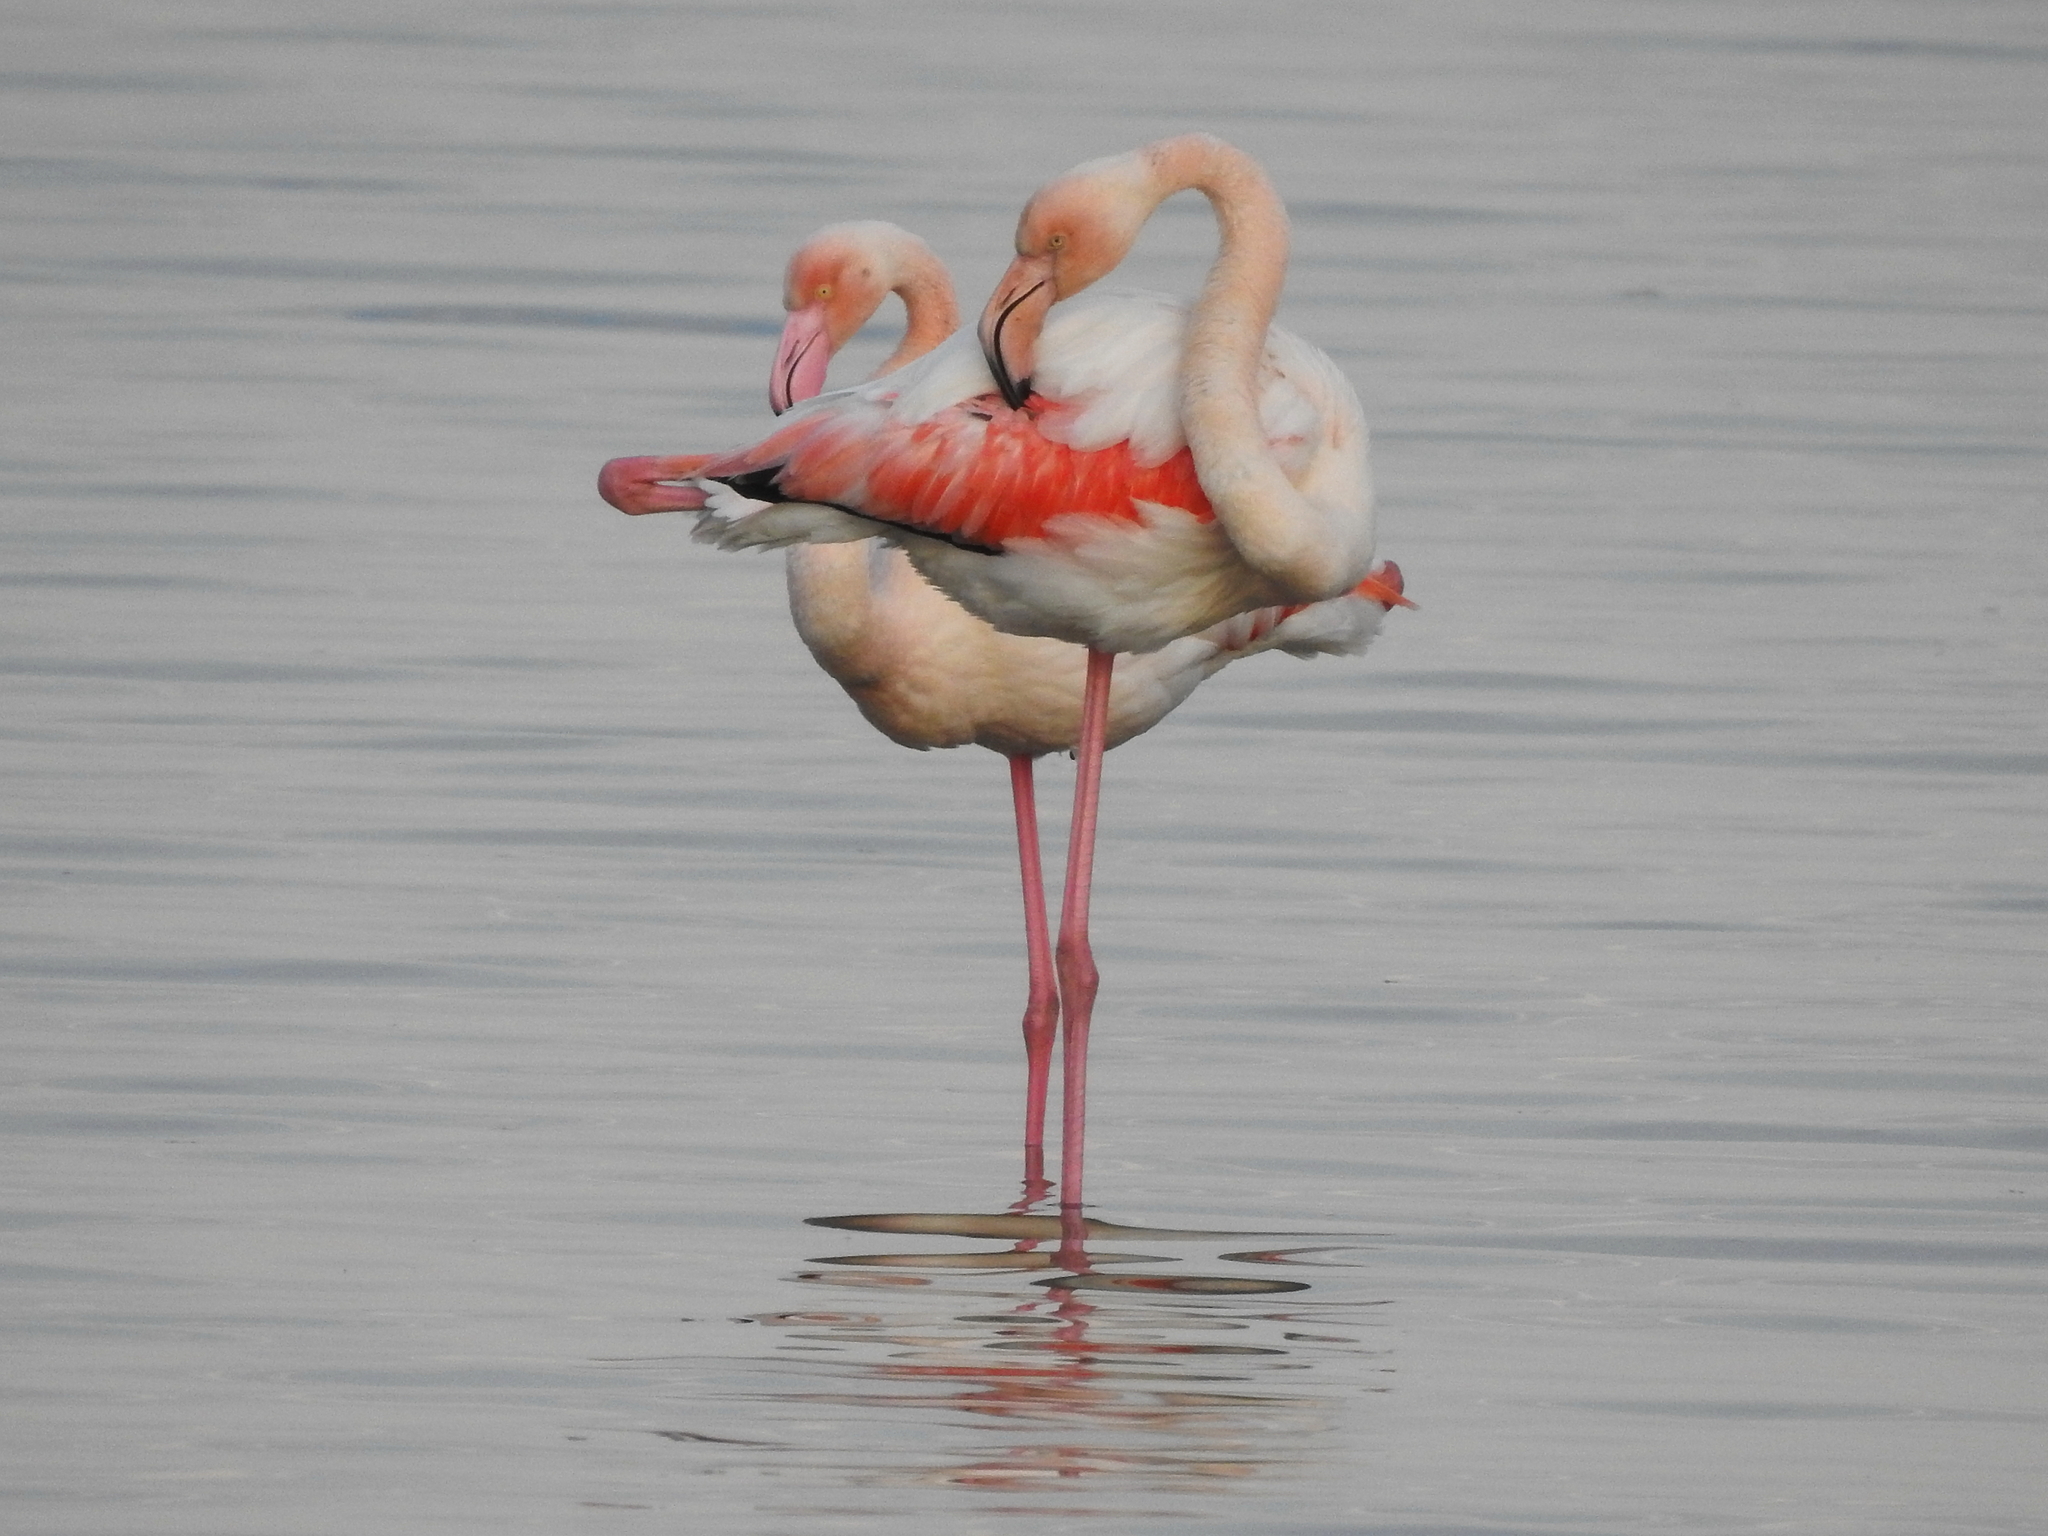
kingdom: Animalia
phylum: Chordata
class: Aves
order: Phoenicopteriformes
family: Phoenicopteridae
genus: Phoenicopterus
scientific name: Phoenicopterus roseus
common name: Greater flamingo
